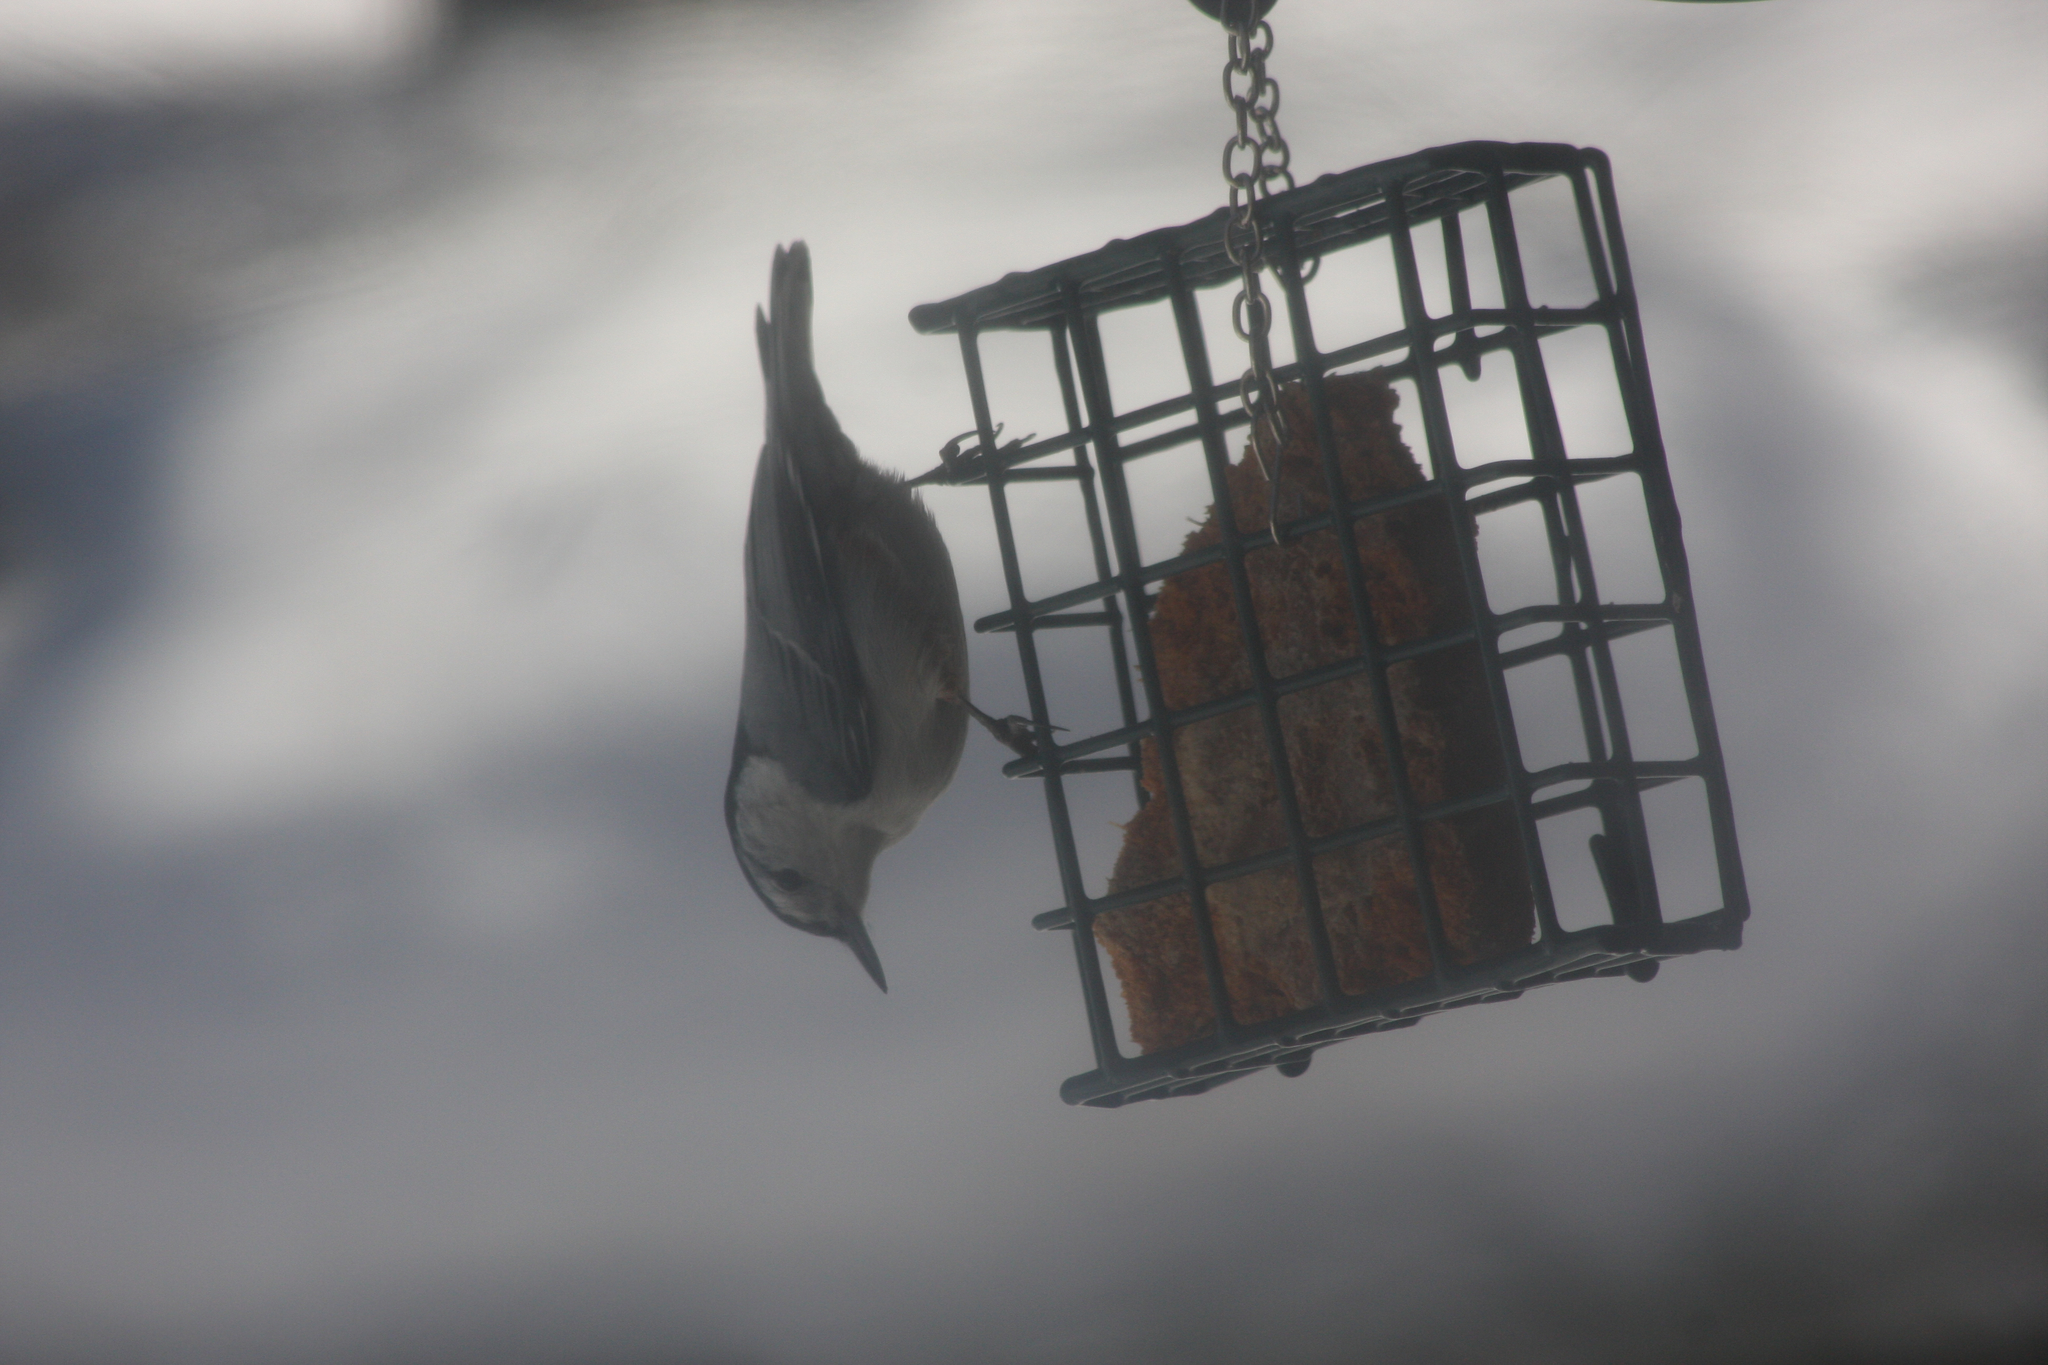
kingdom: Animalia
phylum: Chordata
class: Aves
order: Passeriformes
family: Sittidae
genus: Sitta
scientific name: Sitta carolinensis
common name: White-breasted nuthatch
